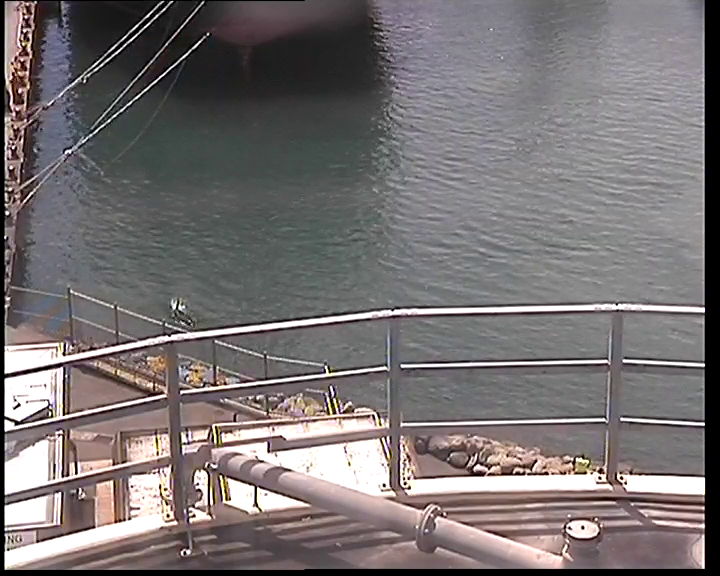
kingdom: Animalia
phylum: Chordata
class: Mammalia
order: Cetacea
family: Delphinidae
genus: Orcinus
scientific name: Orcinus orca
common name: Killer whale
